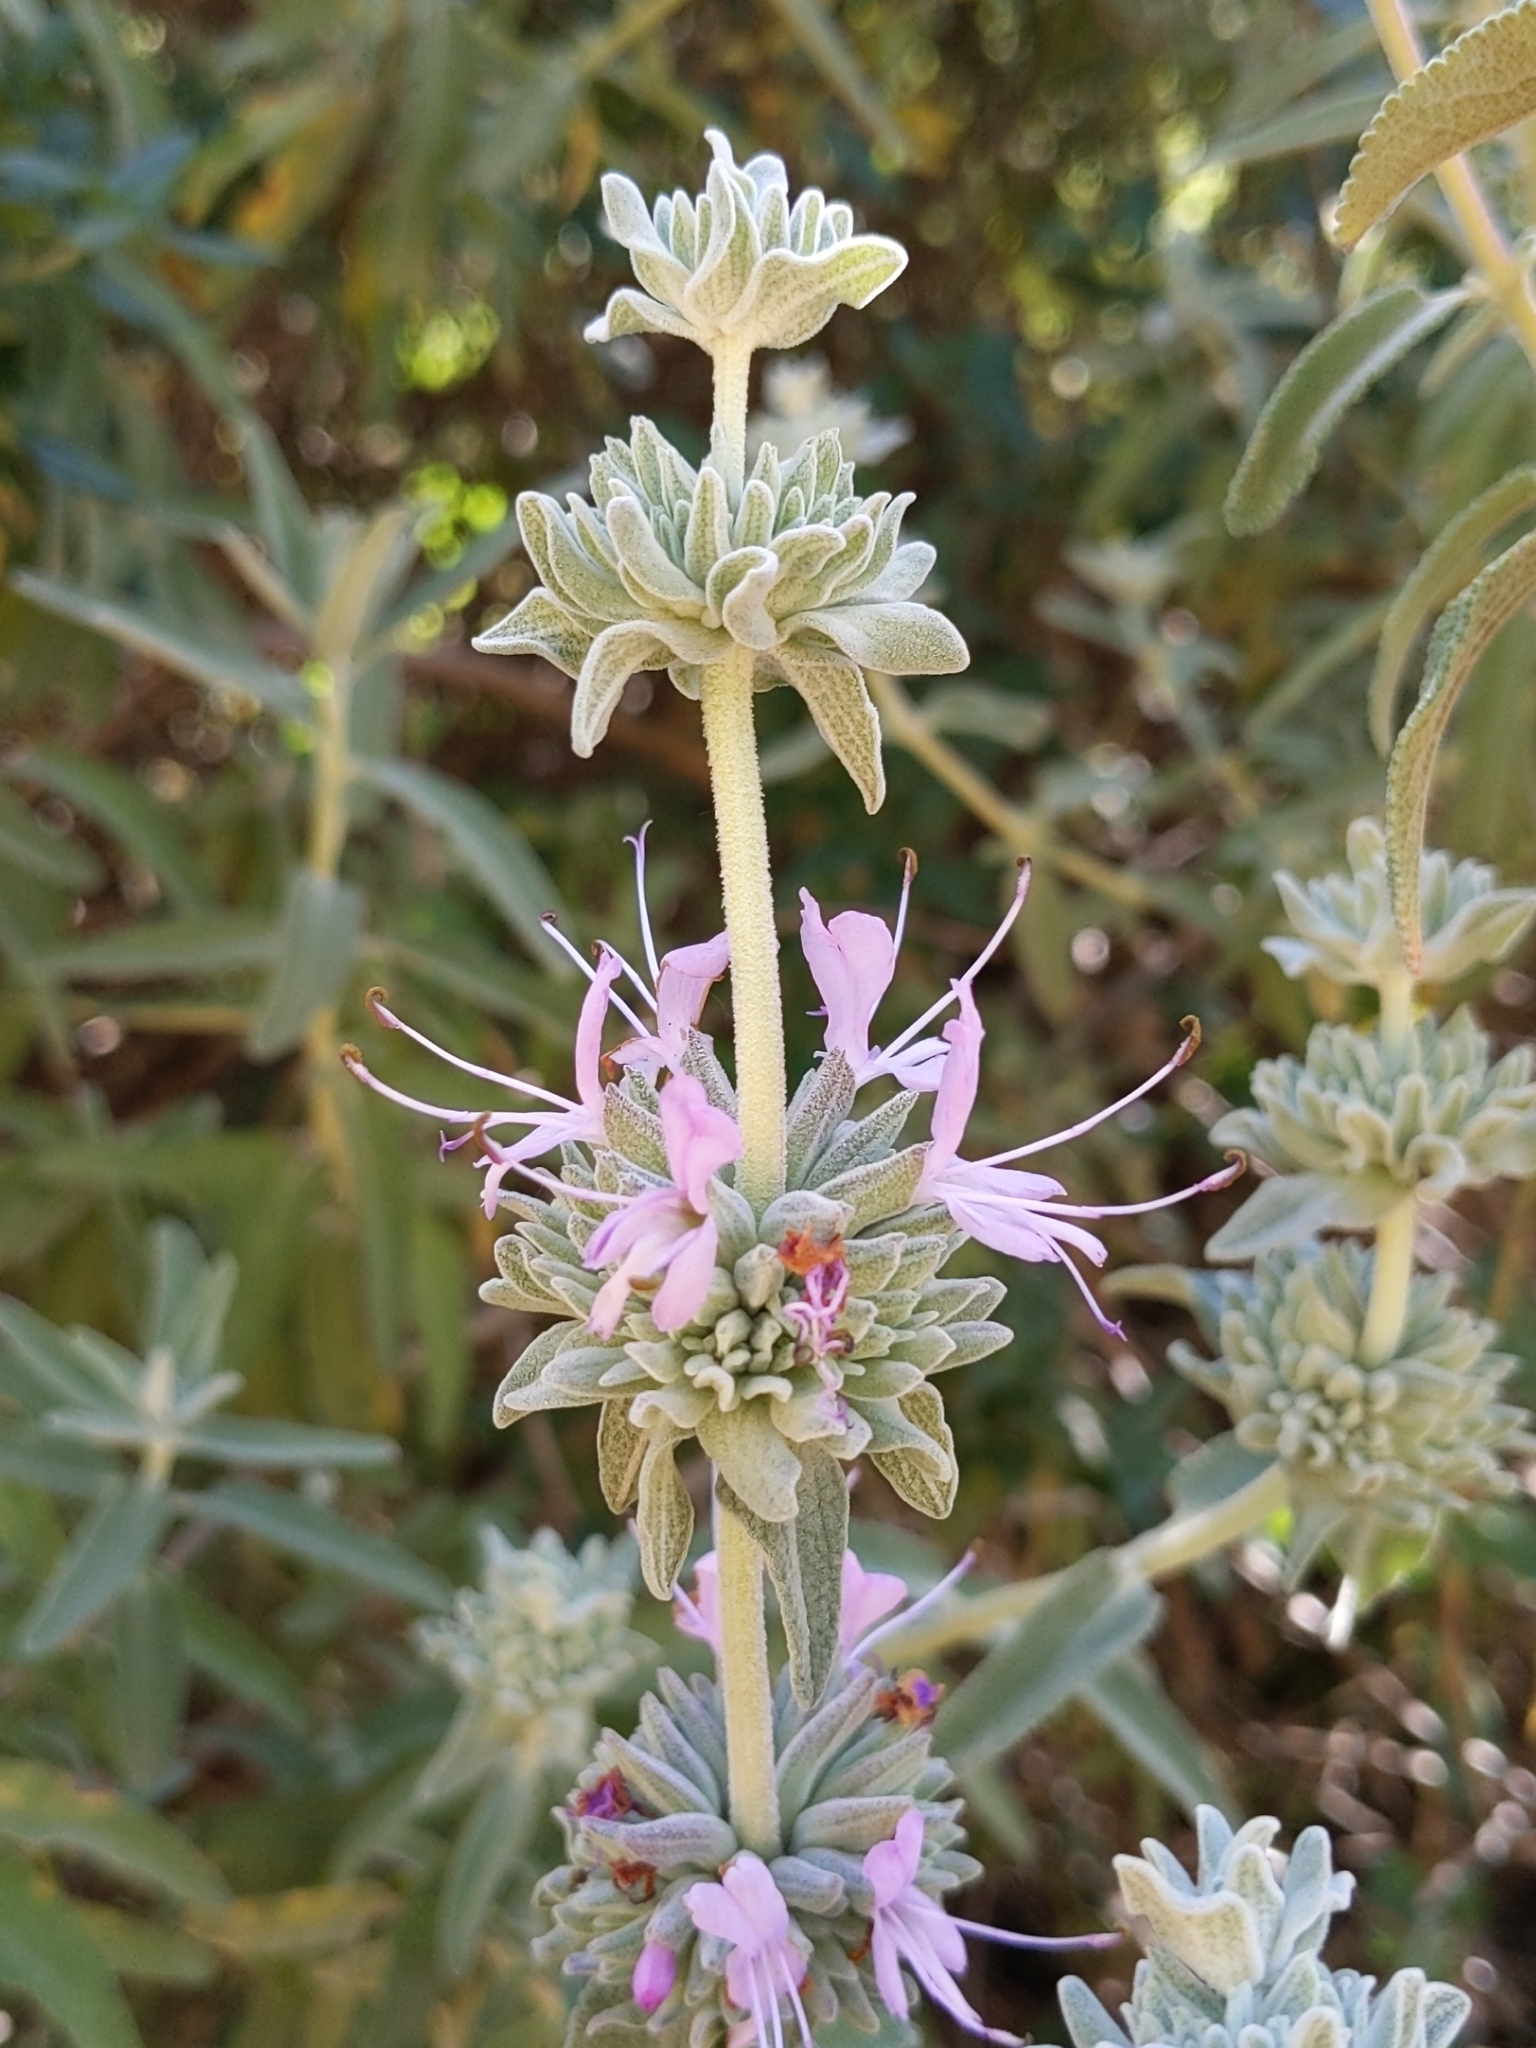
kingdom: Plantae
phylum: Tracheophyta
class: Magnoliopsida
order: Lamiales
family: Lamiaceae
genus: Salvia
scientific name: Salvia leucophylla
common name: Purple sage
